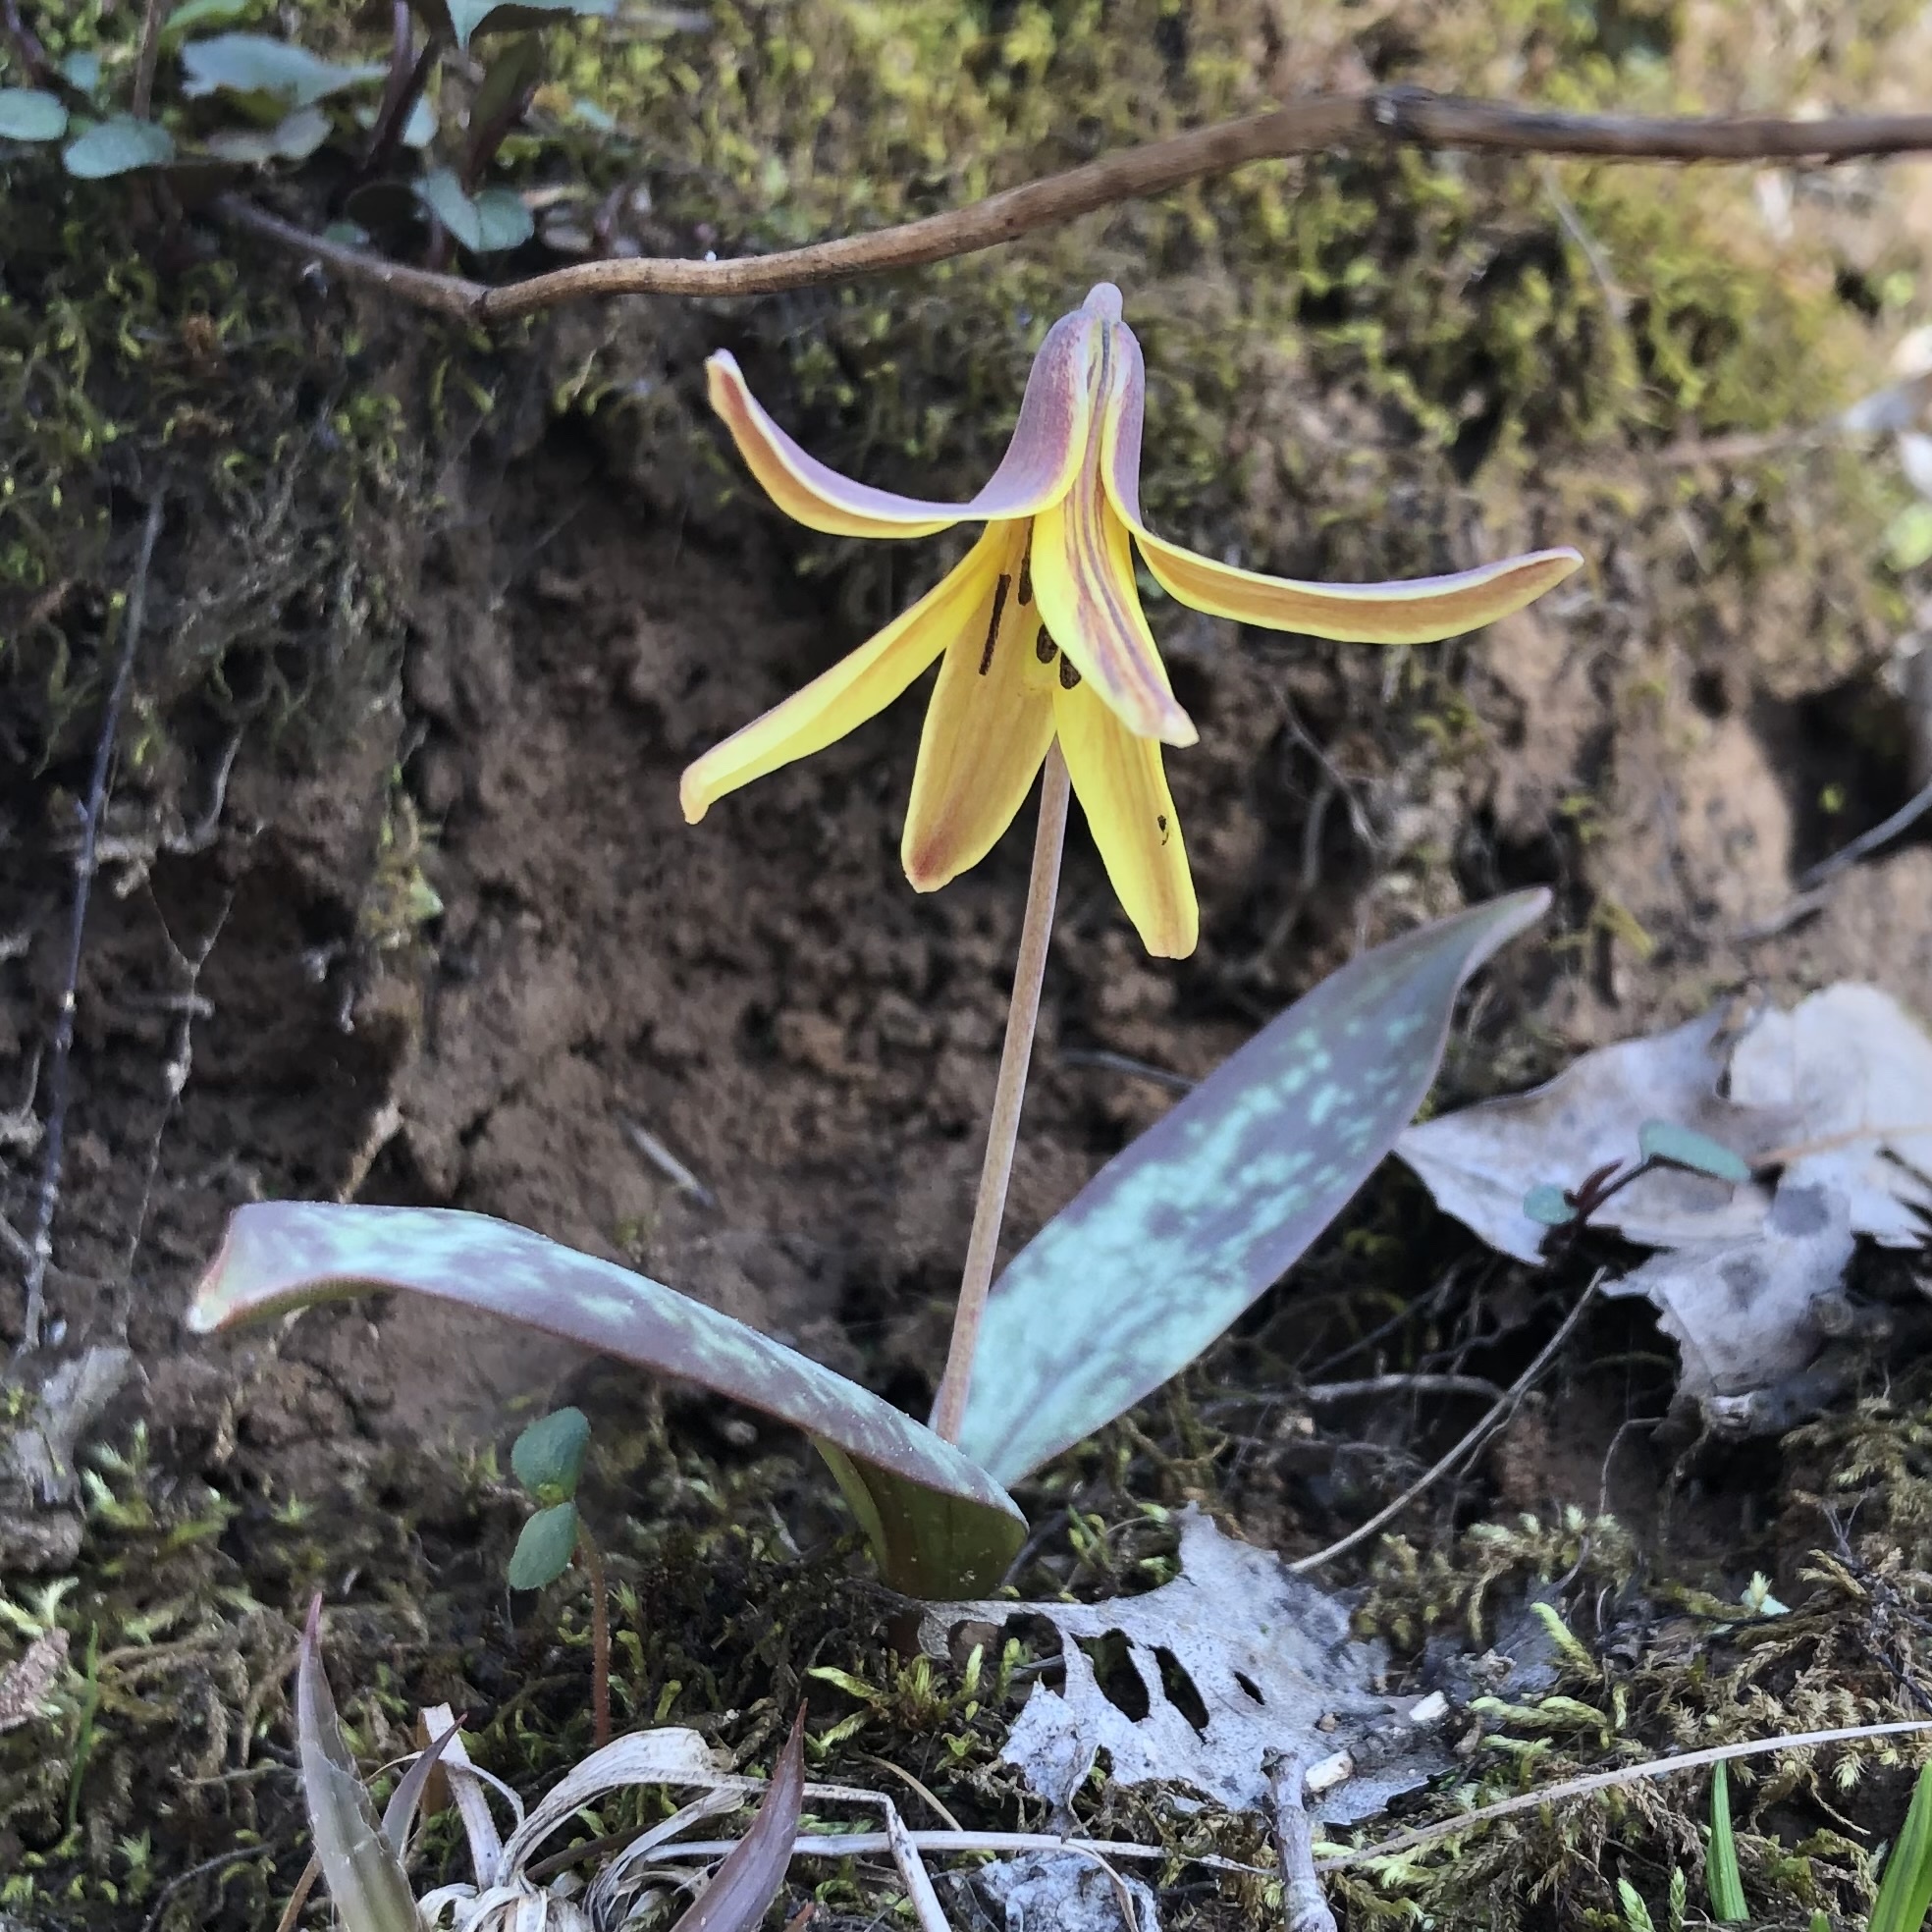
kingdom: Plantae
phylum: Tracheophyta
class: Liliopsida
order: Liliales
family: Liliaceae
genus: Erythronium
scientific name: Erythronium umbilicatum
